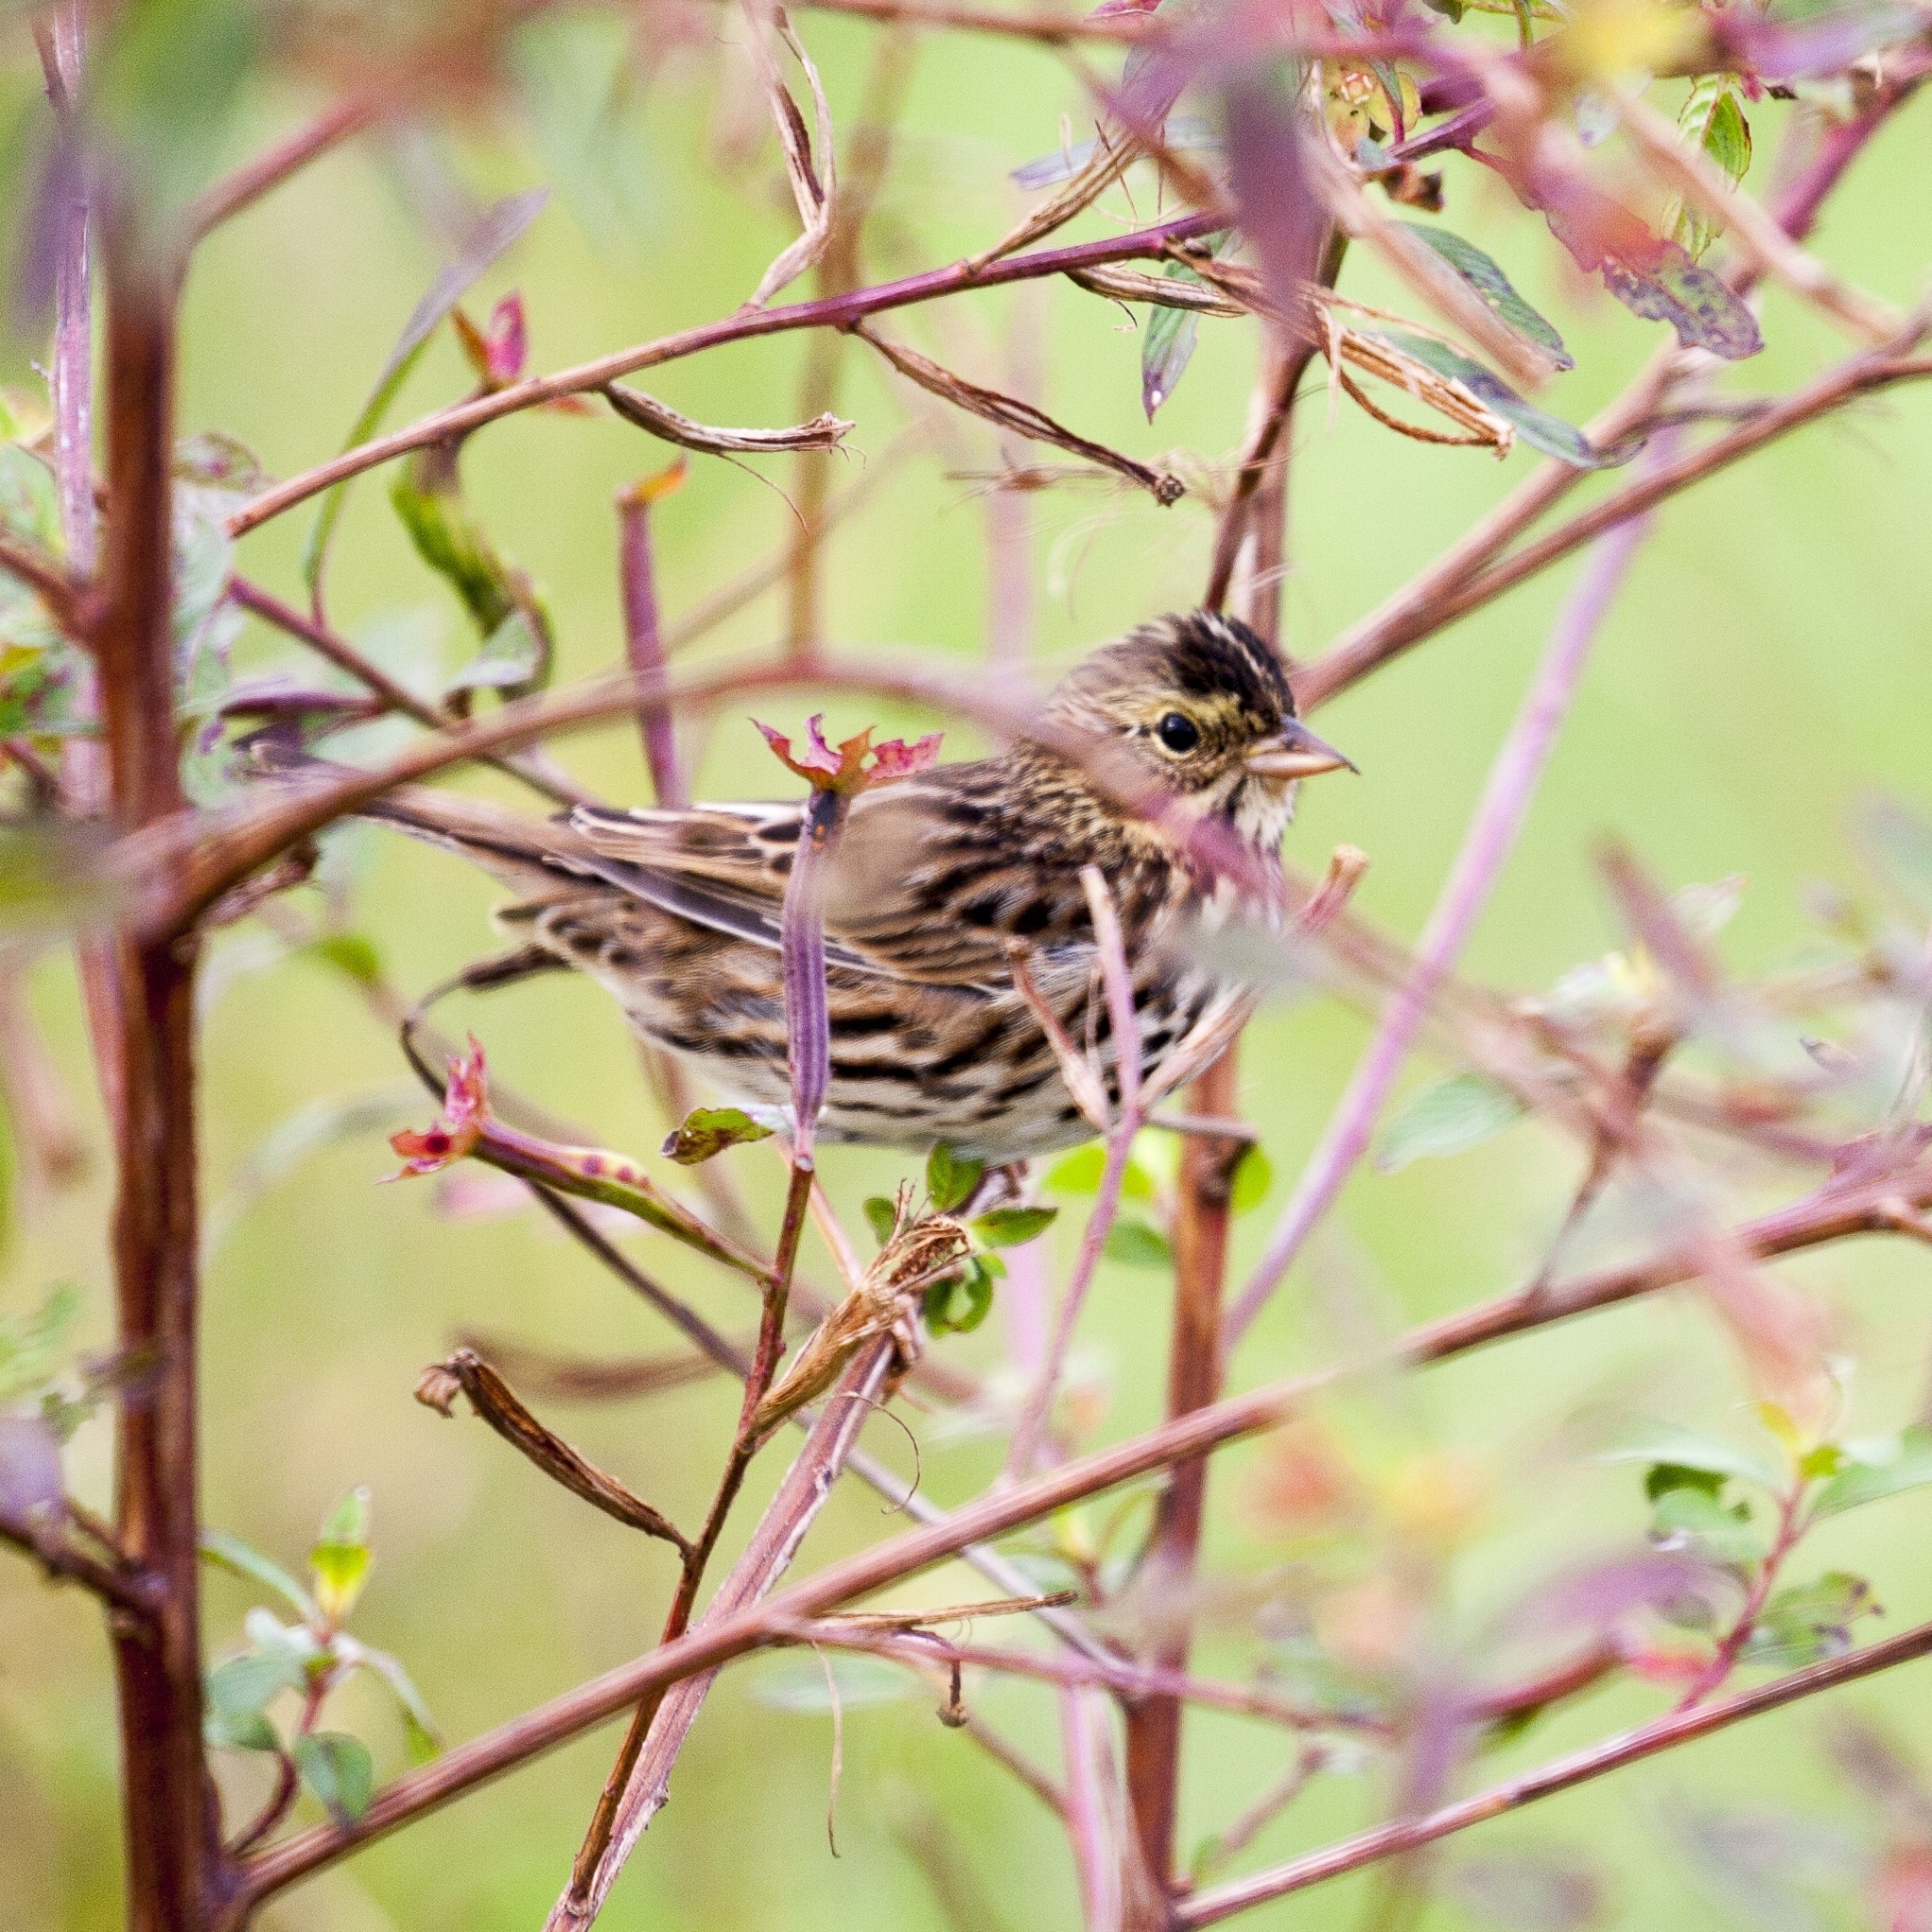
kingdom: Animalia
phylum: Chordata
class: Aves
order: Passeriformes
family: Passerellidae
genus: Passerculus
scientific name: Passerculus sandwichensis
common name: Savannah sparrow
